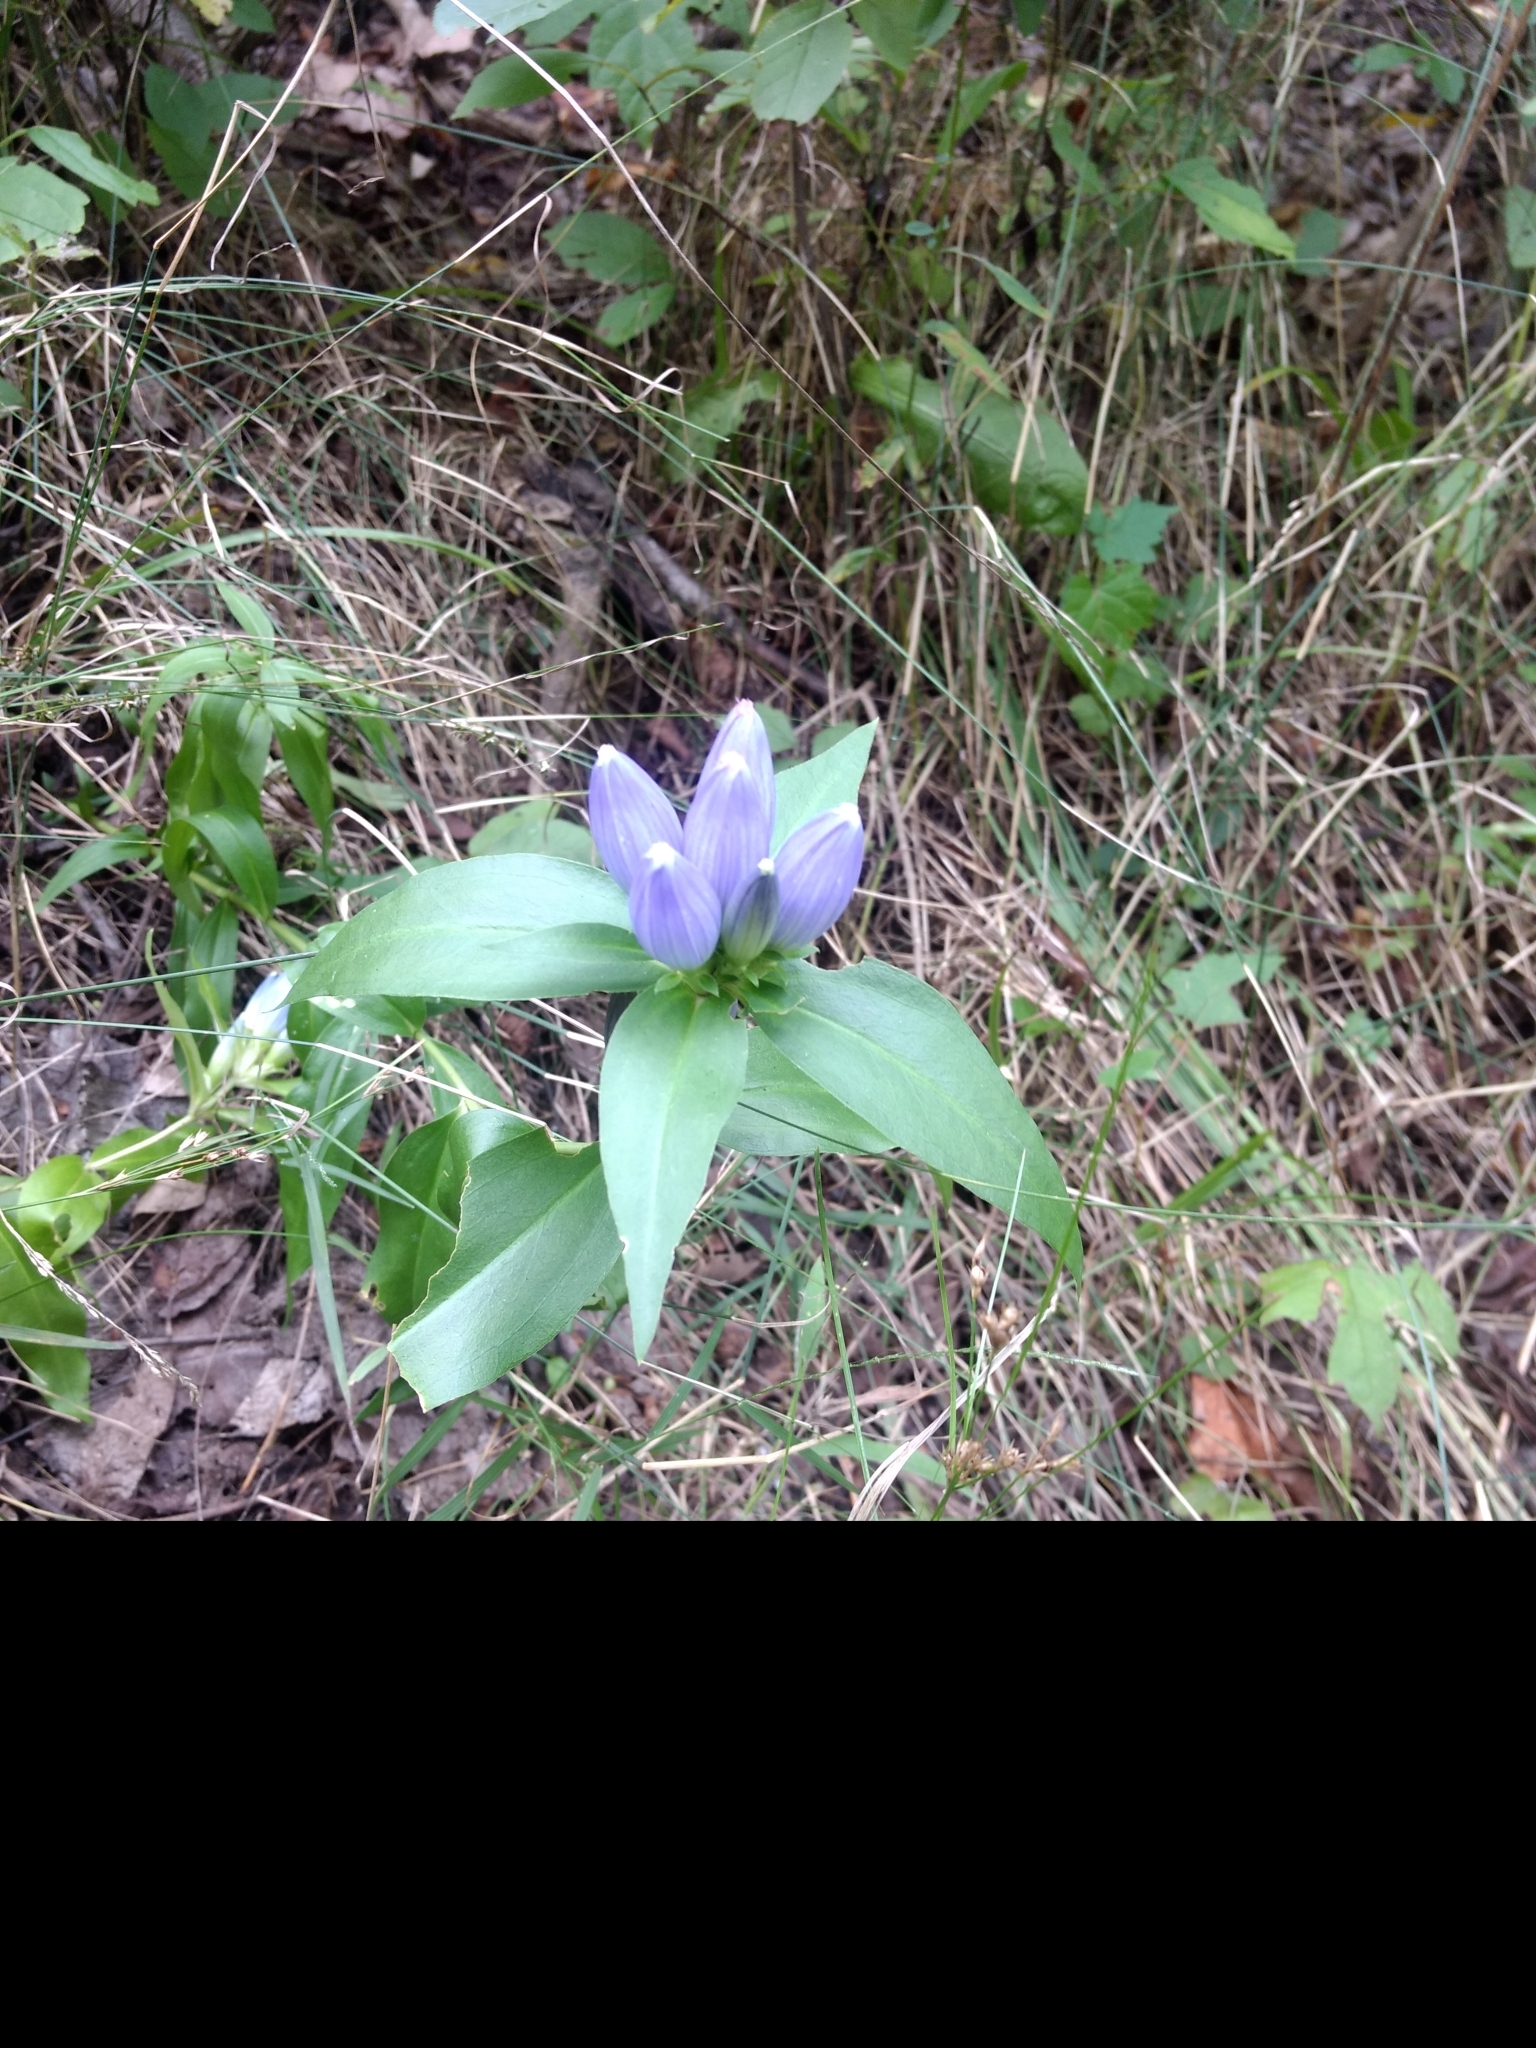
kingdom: Plantae
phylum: Tracheophyta
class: Magnoliopsida
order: Gentianales
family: Gentianaceae
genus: Gentiana
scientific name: Gentiana andrewsii
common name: Bottle gentian
